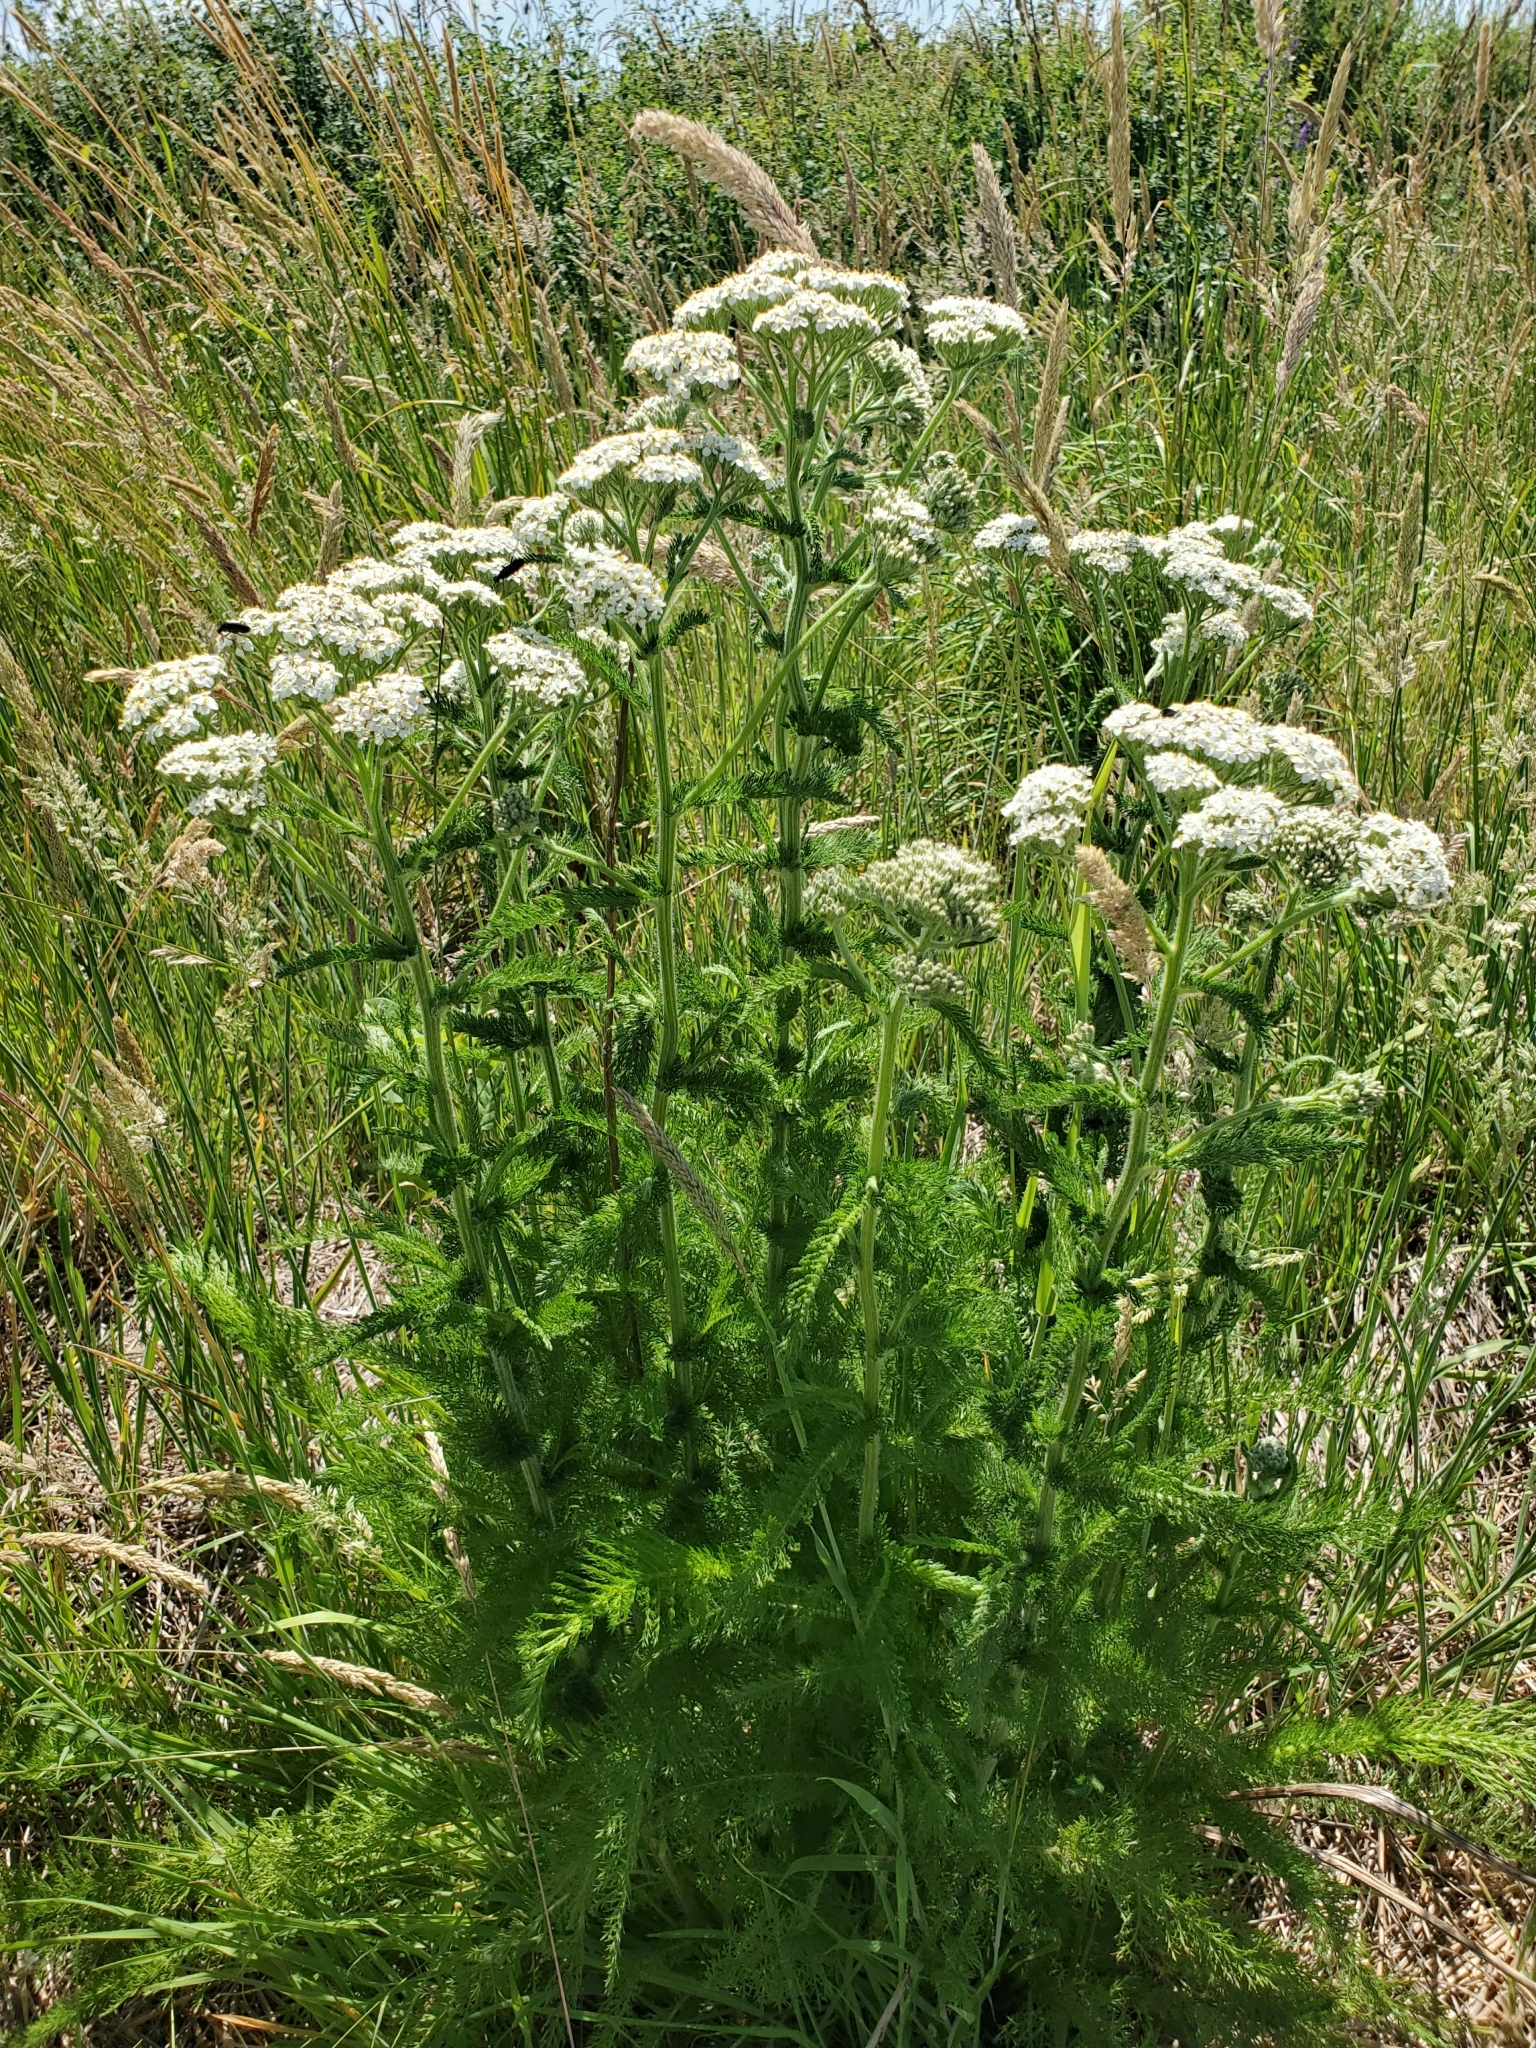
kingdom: Plantae
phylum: Tracheophyta
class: Magnoliopsida
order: Asterales
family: Asteraceae
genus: Achillea
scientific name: Achillea millefolium
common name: Yarrow
